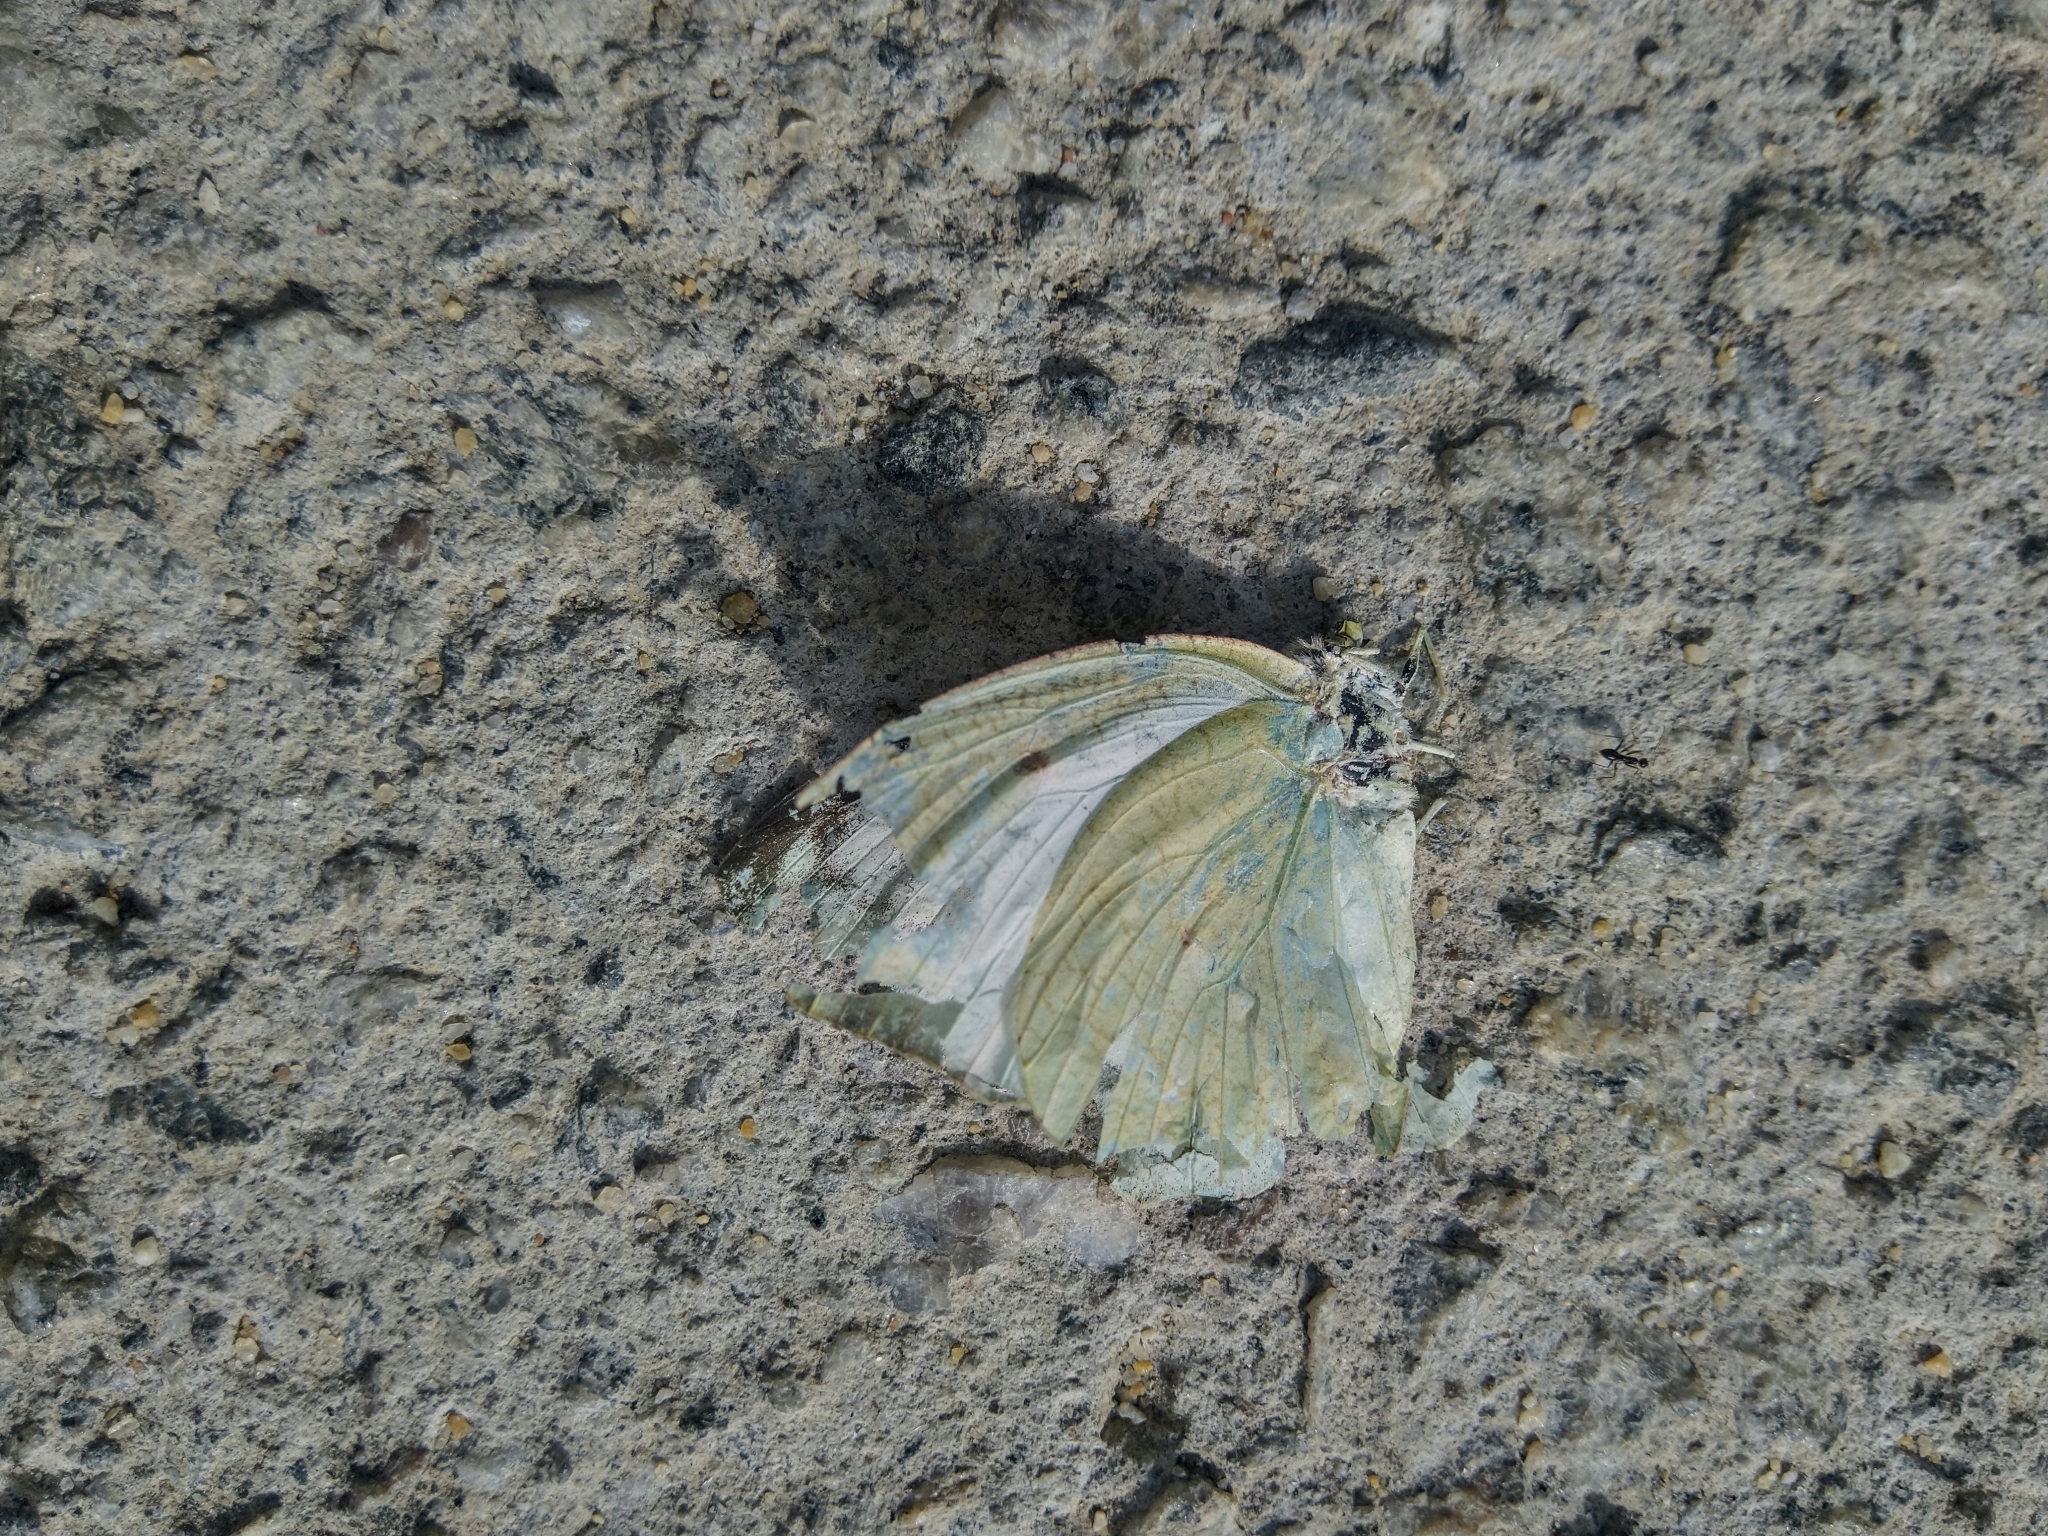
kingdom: Animalia
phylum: Arthropoda
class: Insecta
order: Lepidoptera
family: Pieridae
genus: Catopsilia
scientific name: Catopsilia pyranthe
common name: Mottled emigrant
